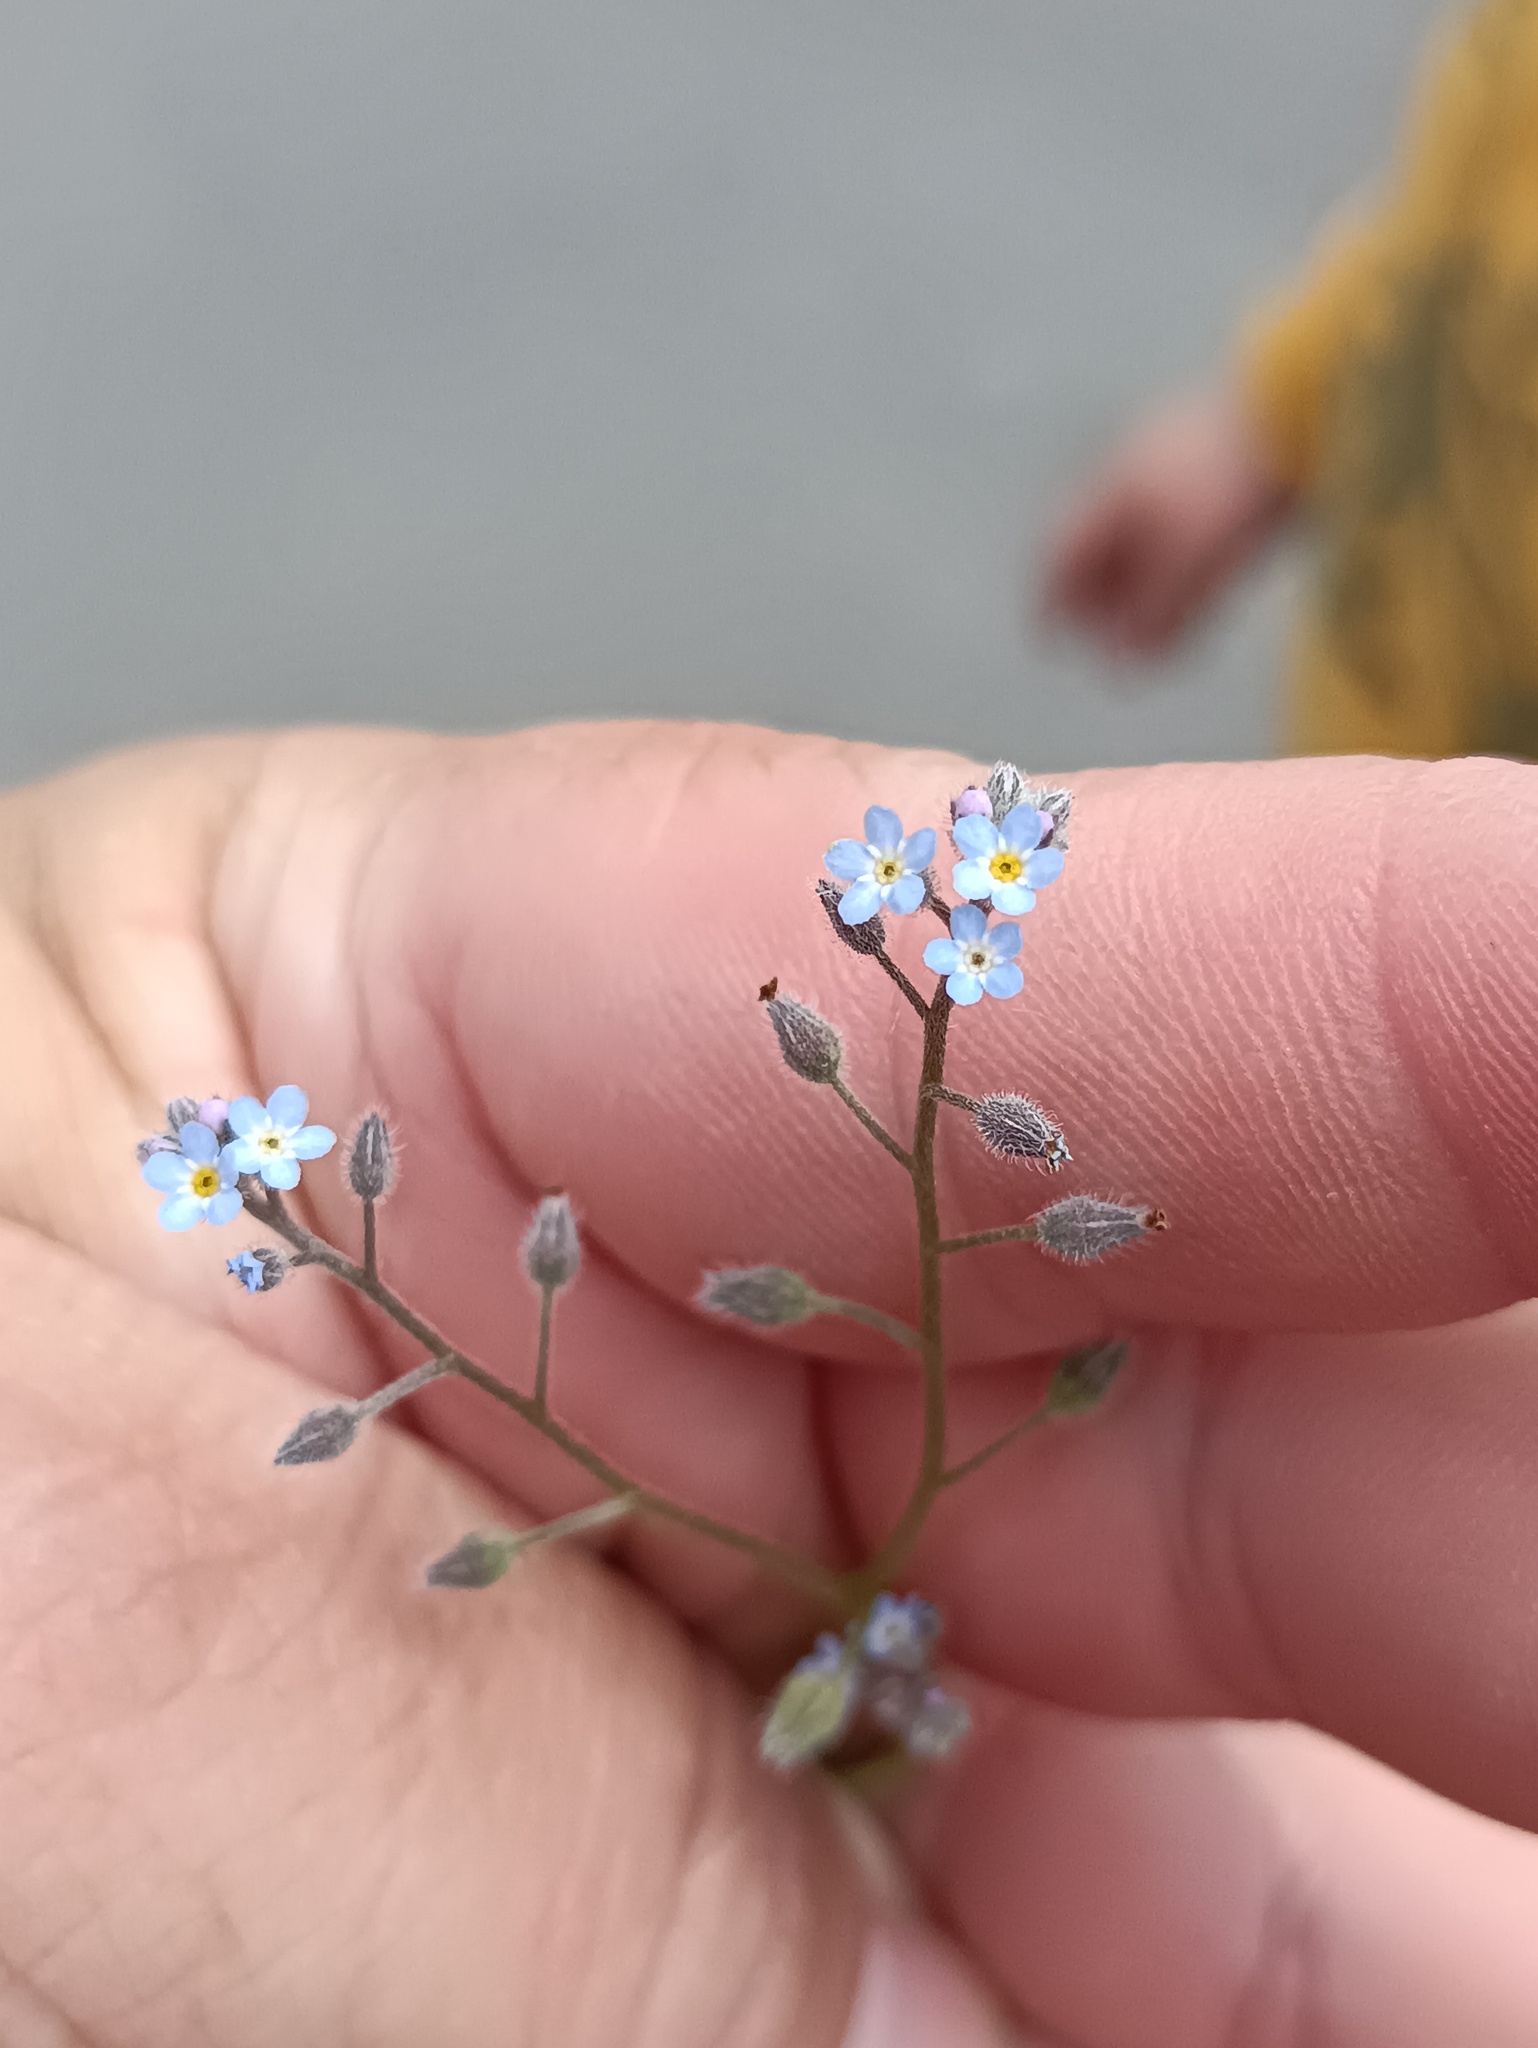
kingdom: Plantae
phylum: Tracheophyta
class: Magnoliopsida
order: Boraginales
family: Boraginaceae
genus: Myosotis
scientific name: Myosotis arvensis
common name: Field forget-me-not
